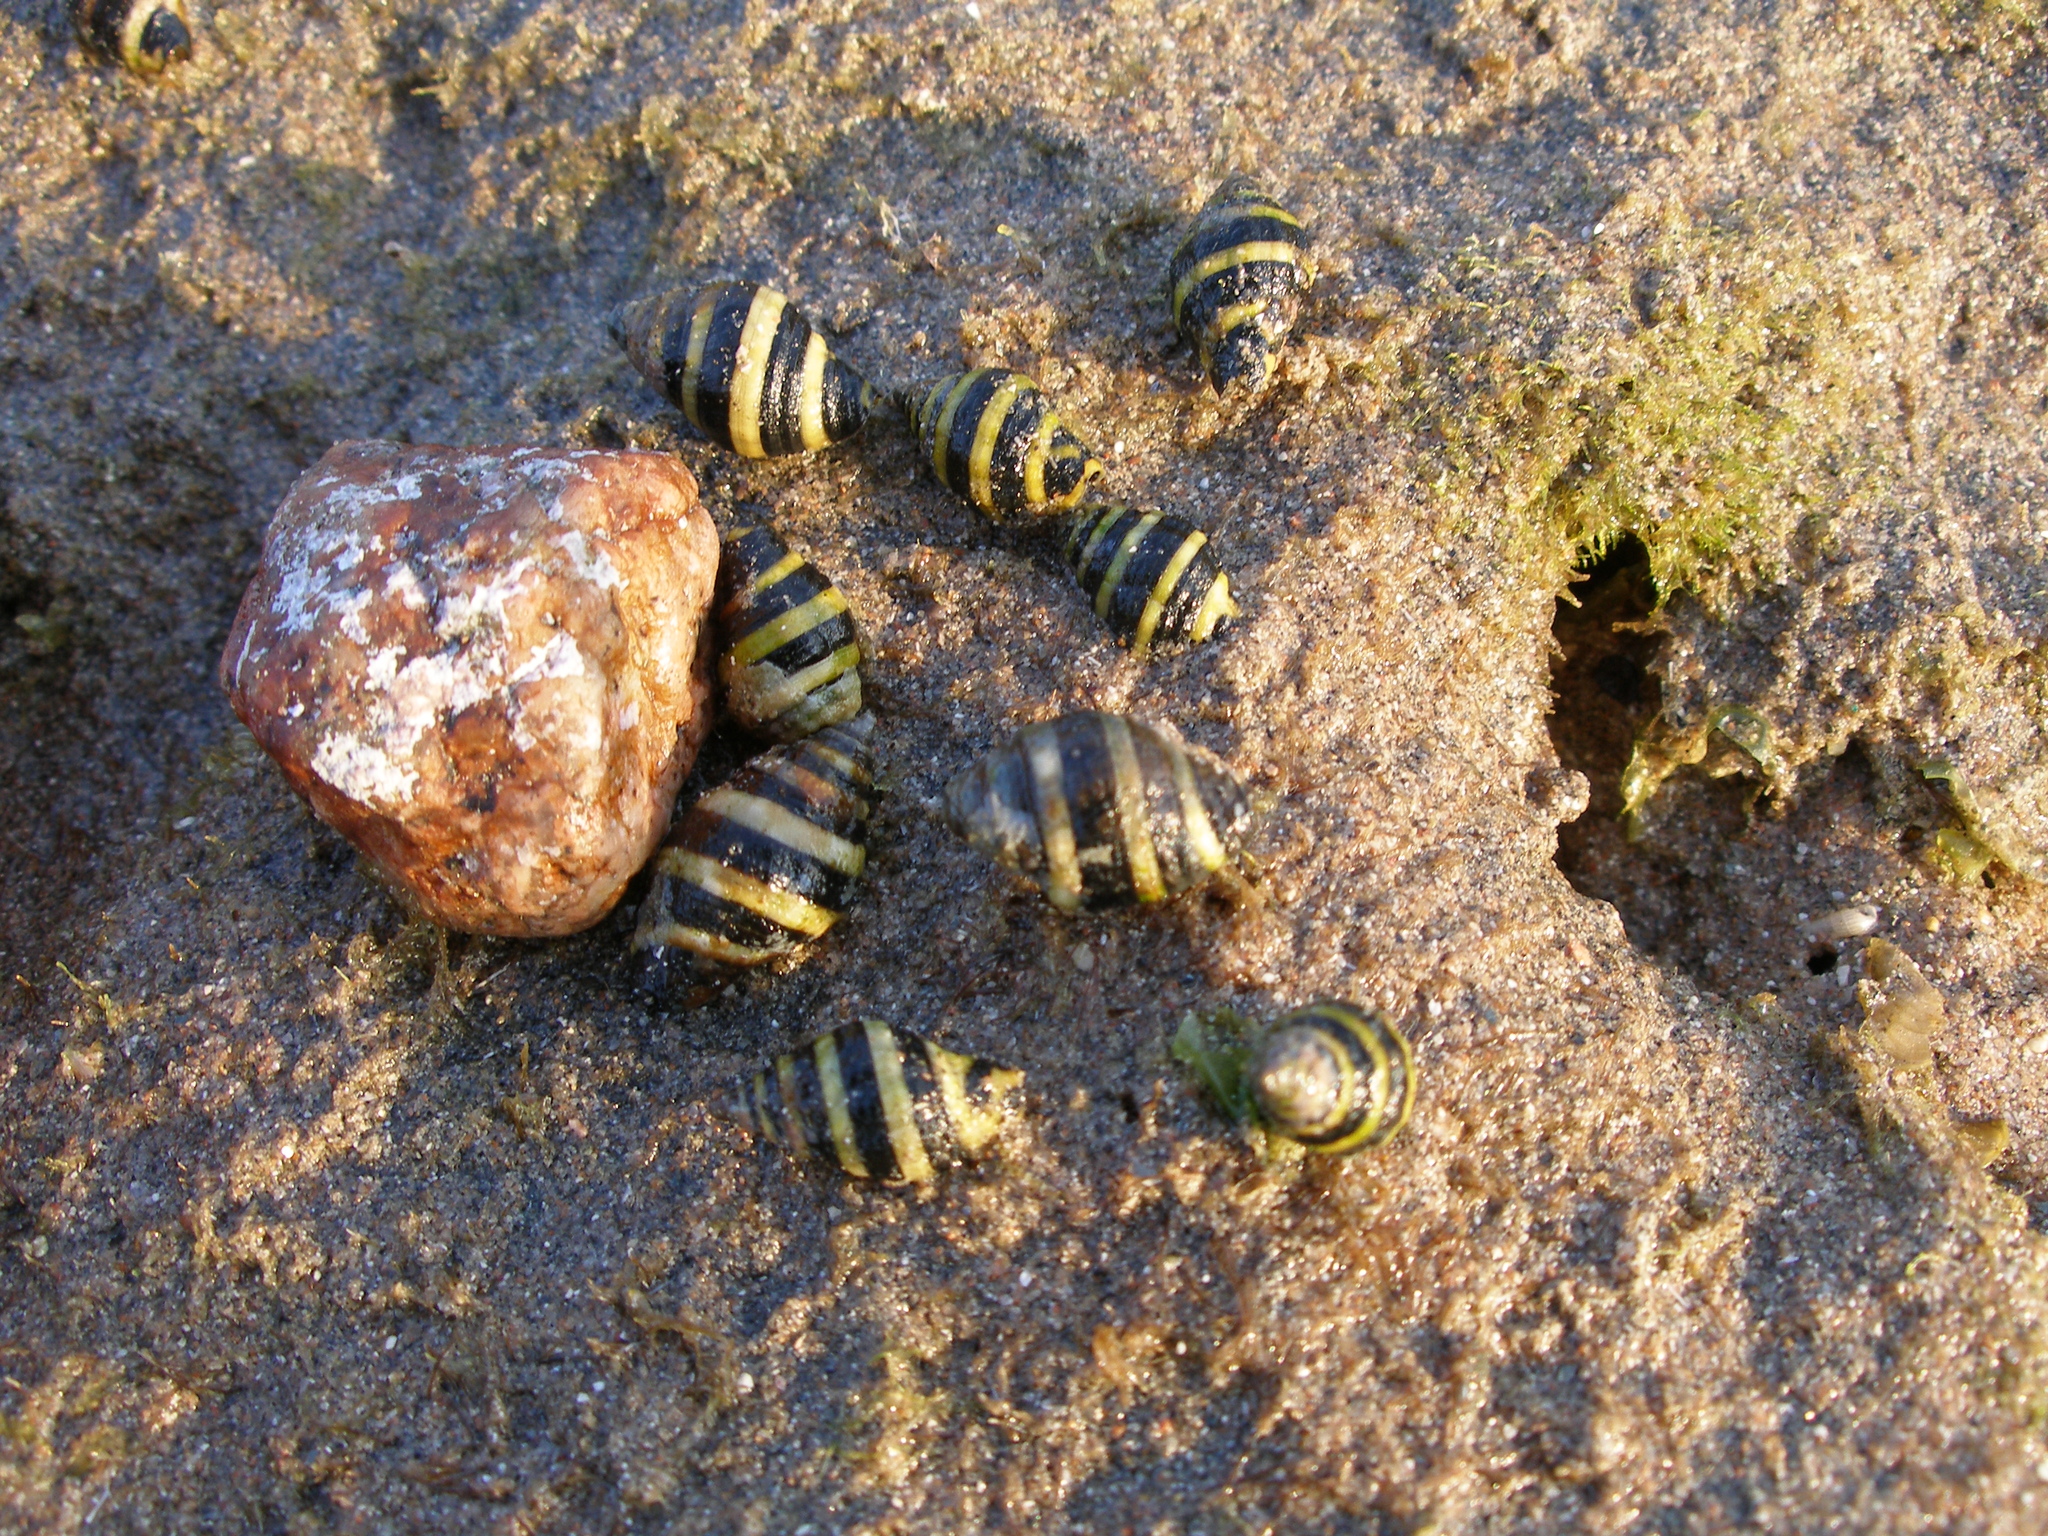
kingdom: Animalia
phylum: Mollusca
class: Gastropoda
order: Neogastropoda
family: Pisaniidae
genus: Engina
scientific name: Engina mendicaria
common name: Bumble bee snail
